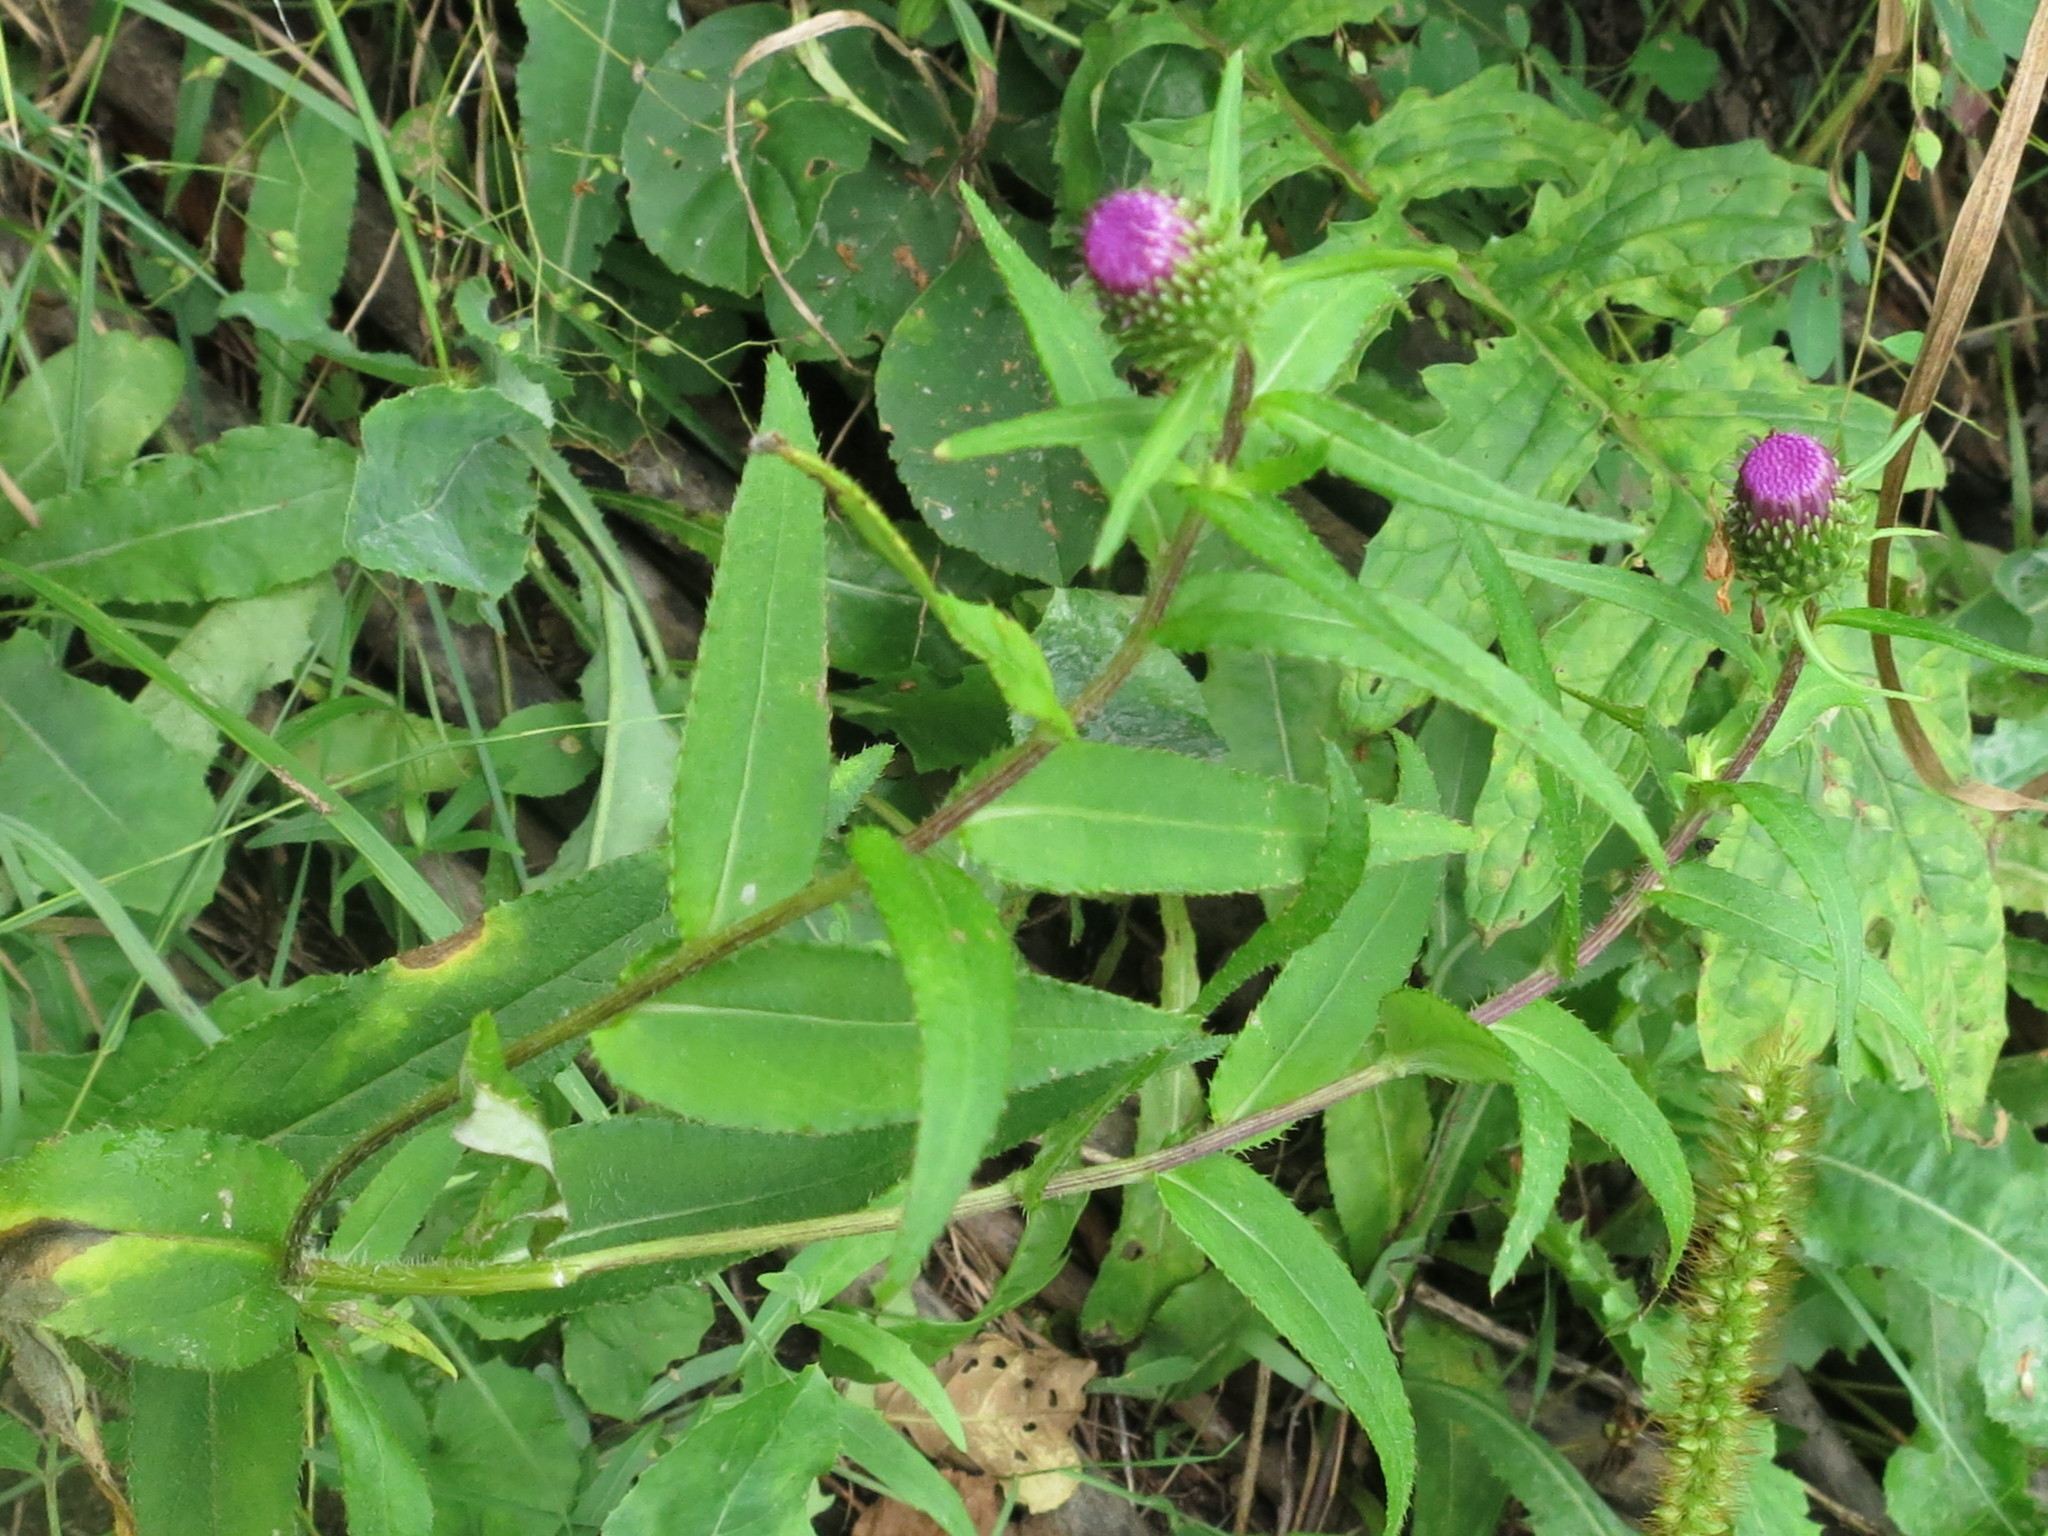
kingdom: Plantae
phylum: Tracheophyta
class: Magnoliopsida
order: Asterales
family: Asteraceae
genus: Cirsium
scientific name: Cirsium vlassovianum
